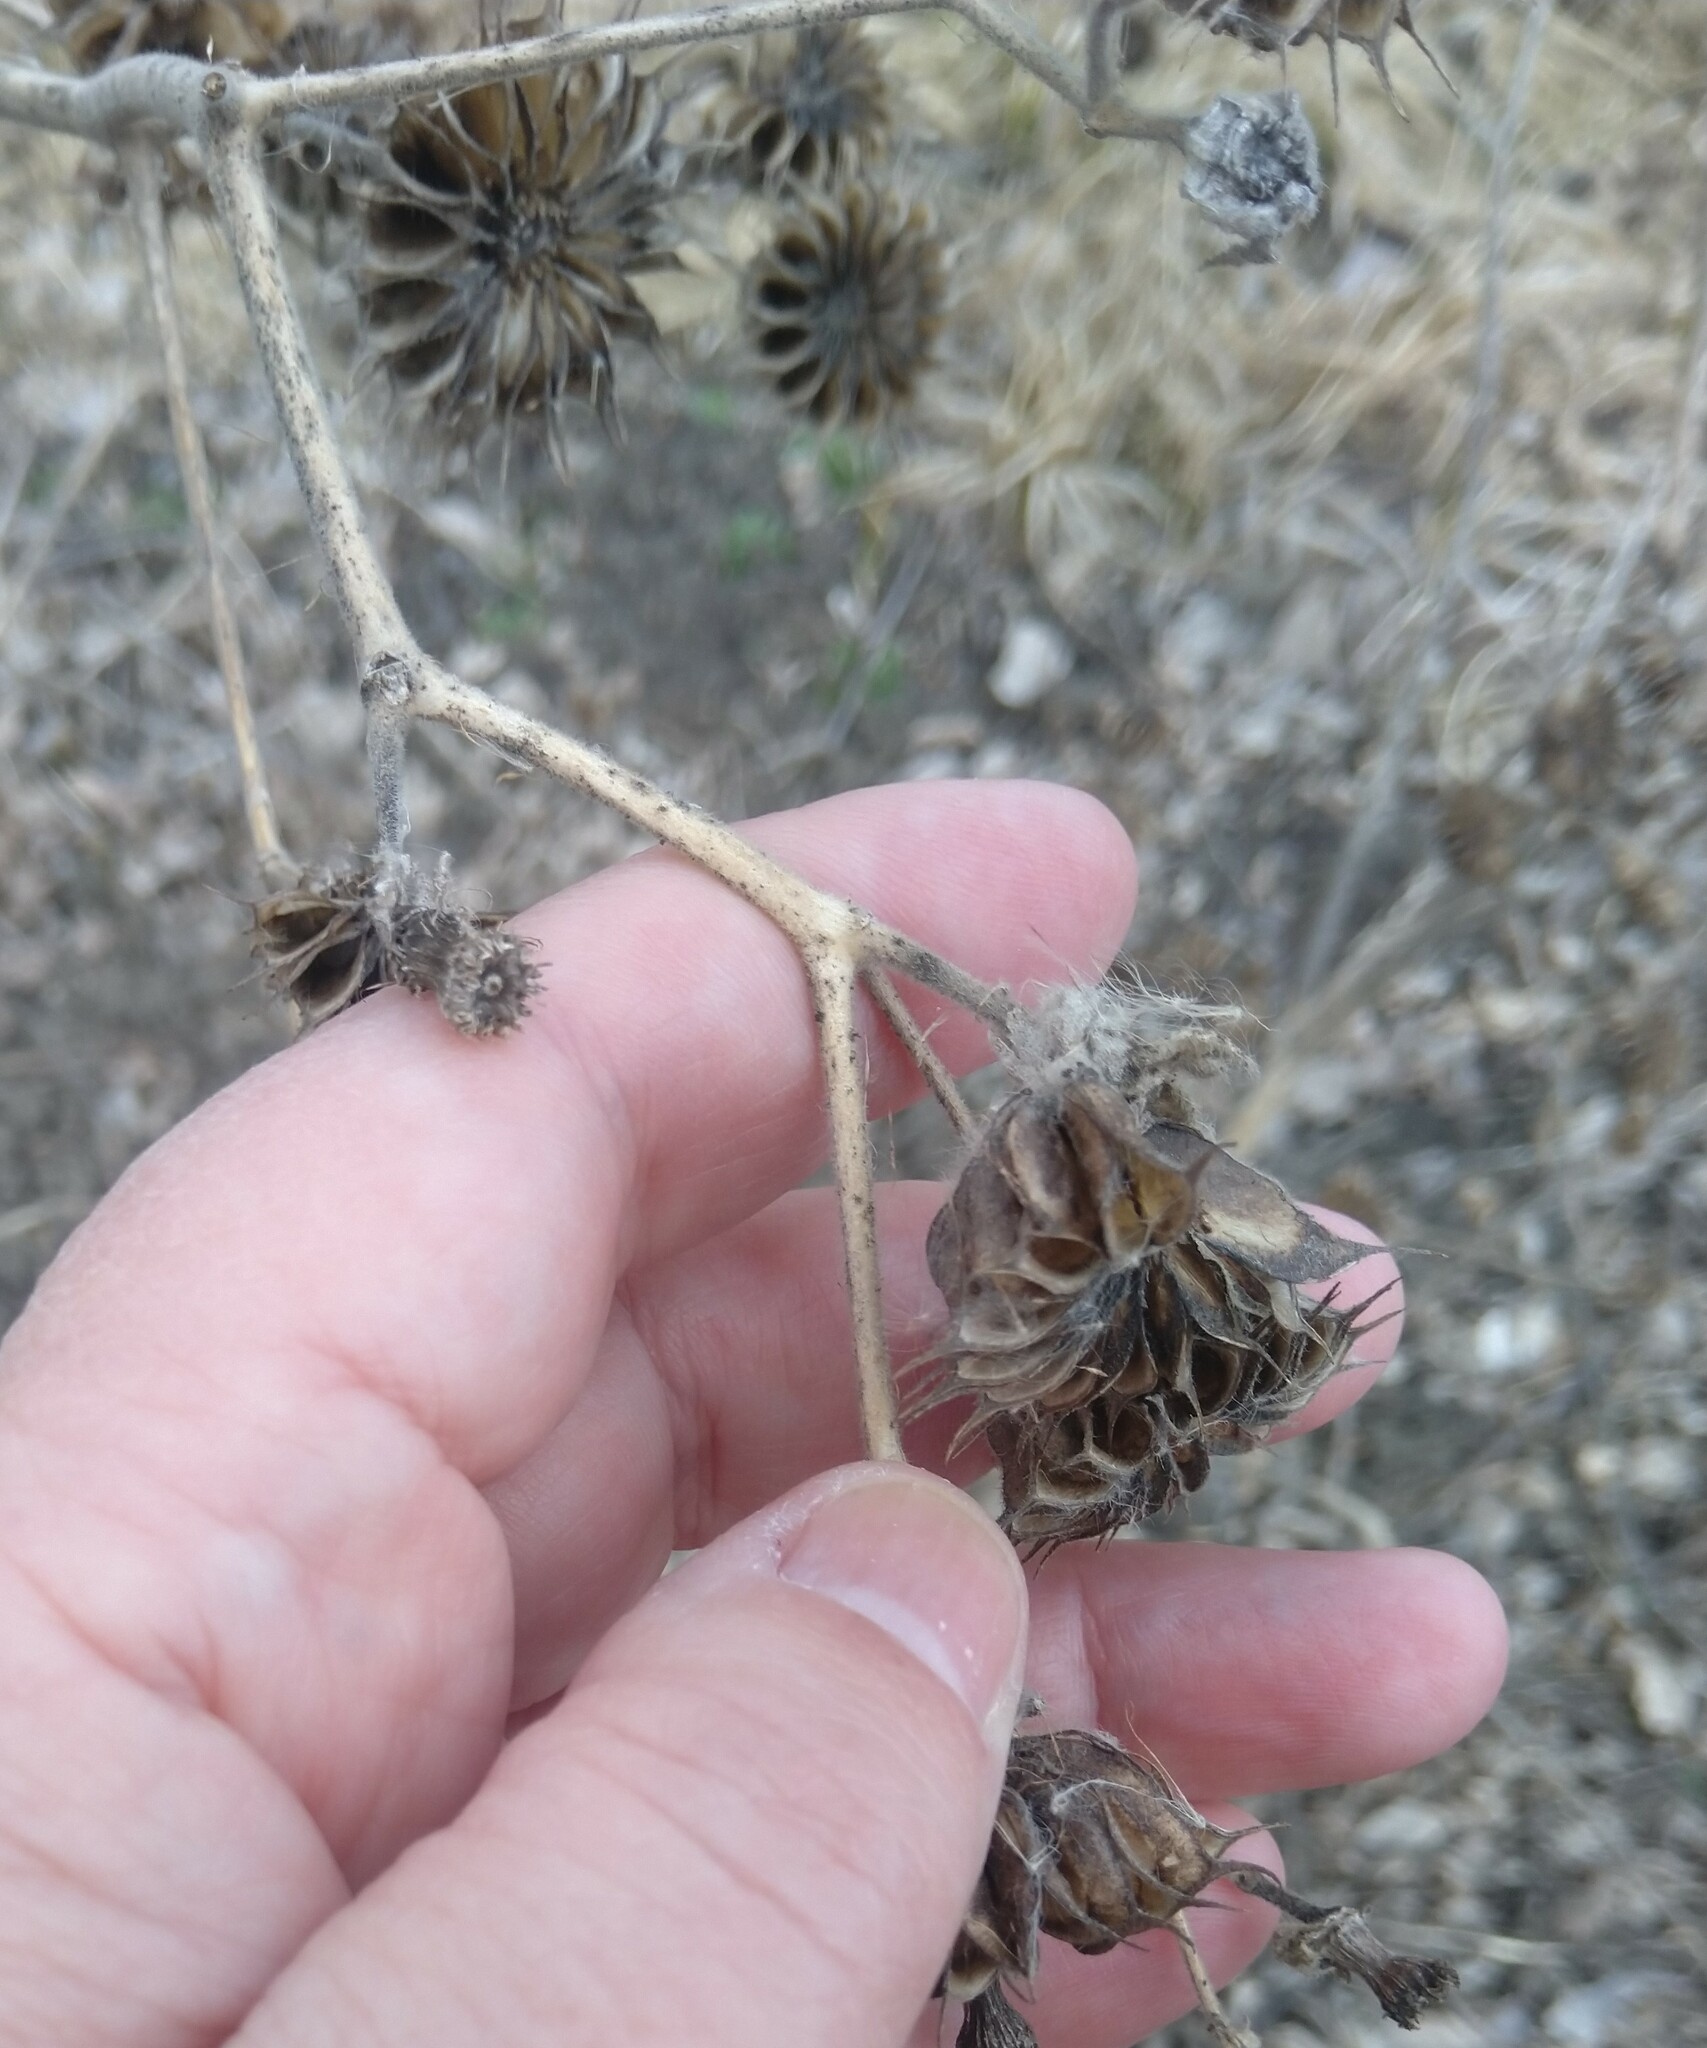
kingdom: Plantae
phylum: Tracheophyta
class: Magnoliopsida
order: Malvales
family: Malvaceae
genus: Abutilon
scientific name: Abutilon theophrasti
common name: Velvetleaf
